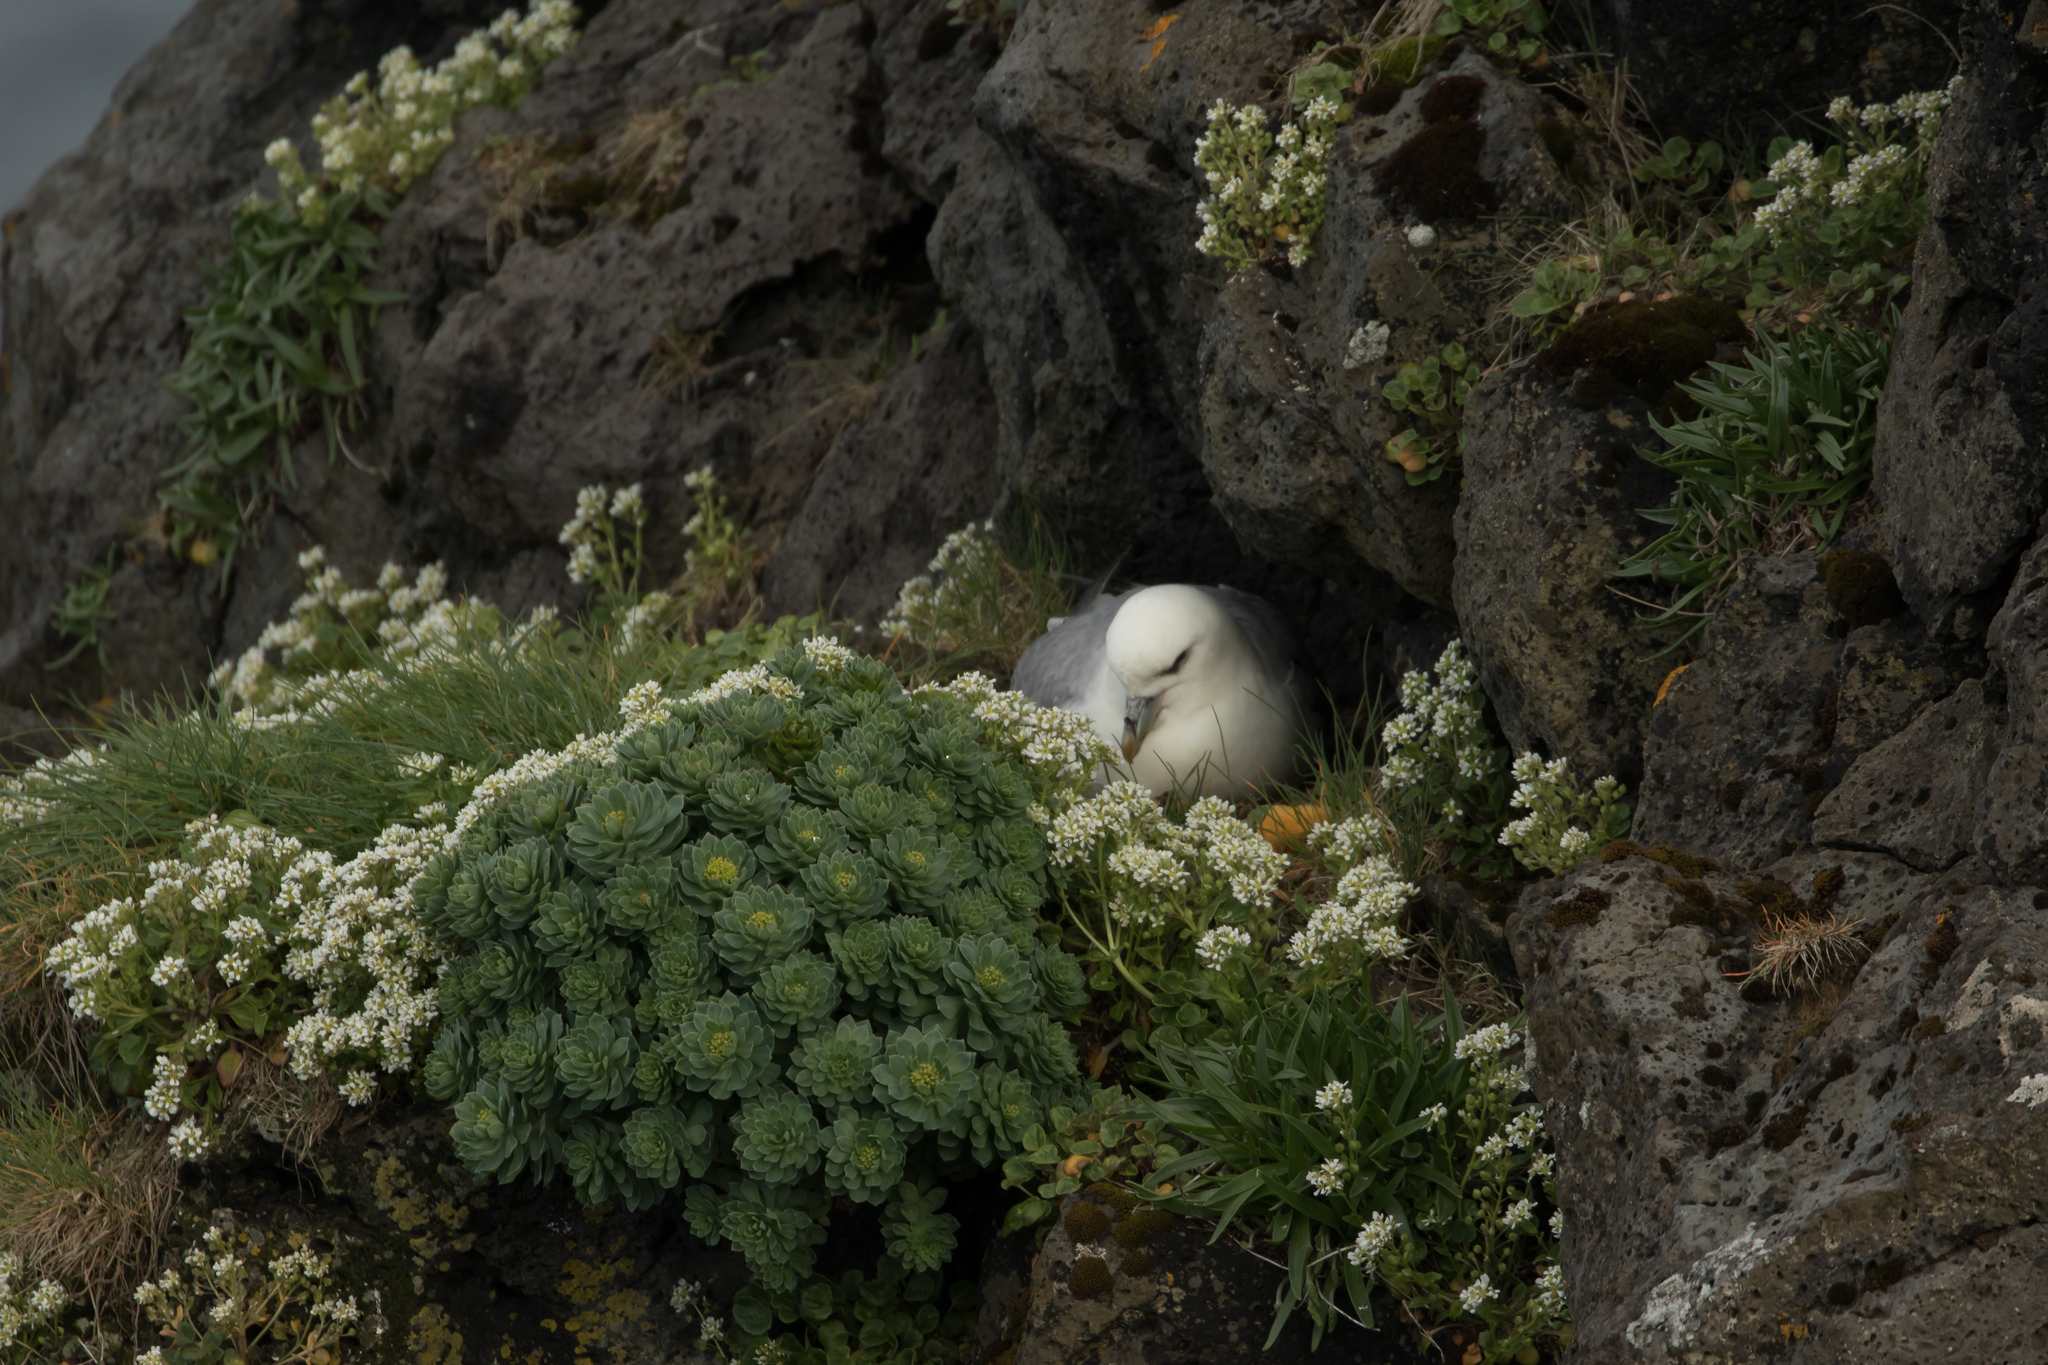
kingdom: Animalia
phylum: Chordata
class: Aves
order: Procellariiformes
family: Procellariidae
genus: Fulmarus
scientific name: Fulmarus glacialis
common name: Northern fulmar
